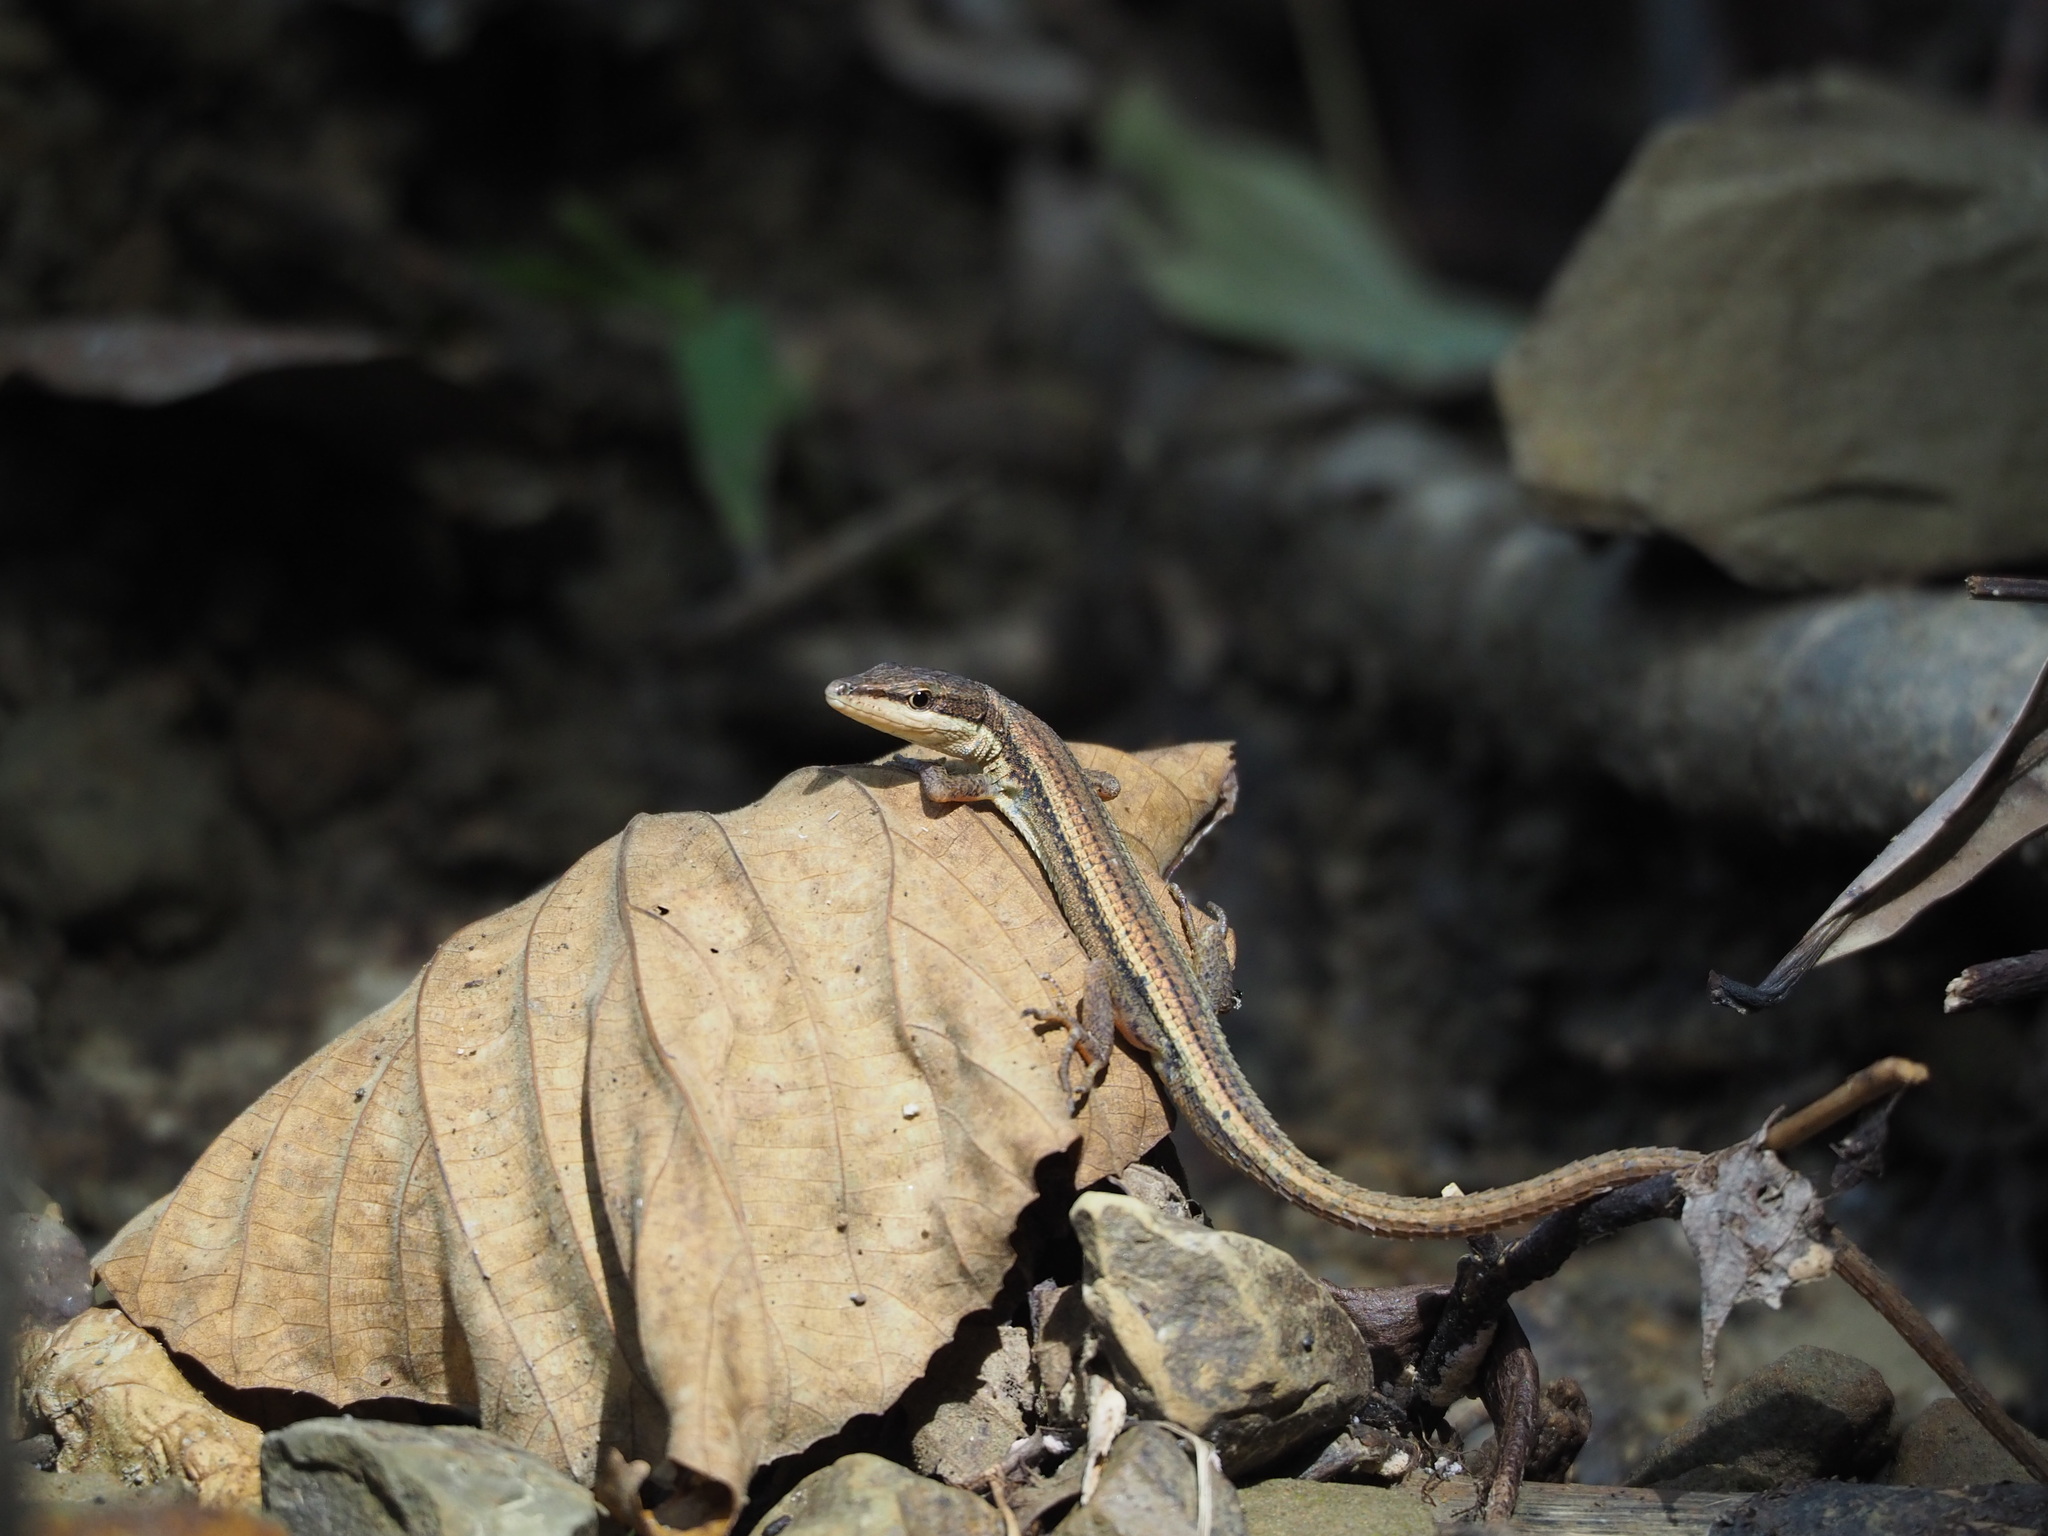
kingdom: Animalia
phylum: Chordata
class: Squamata
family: Lacertidae
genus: Takydromus
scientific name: Takydromus kuehnei
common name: Kuhne’s grass lizard
